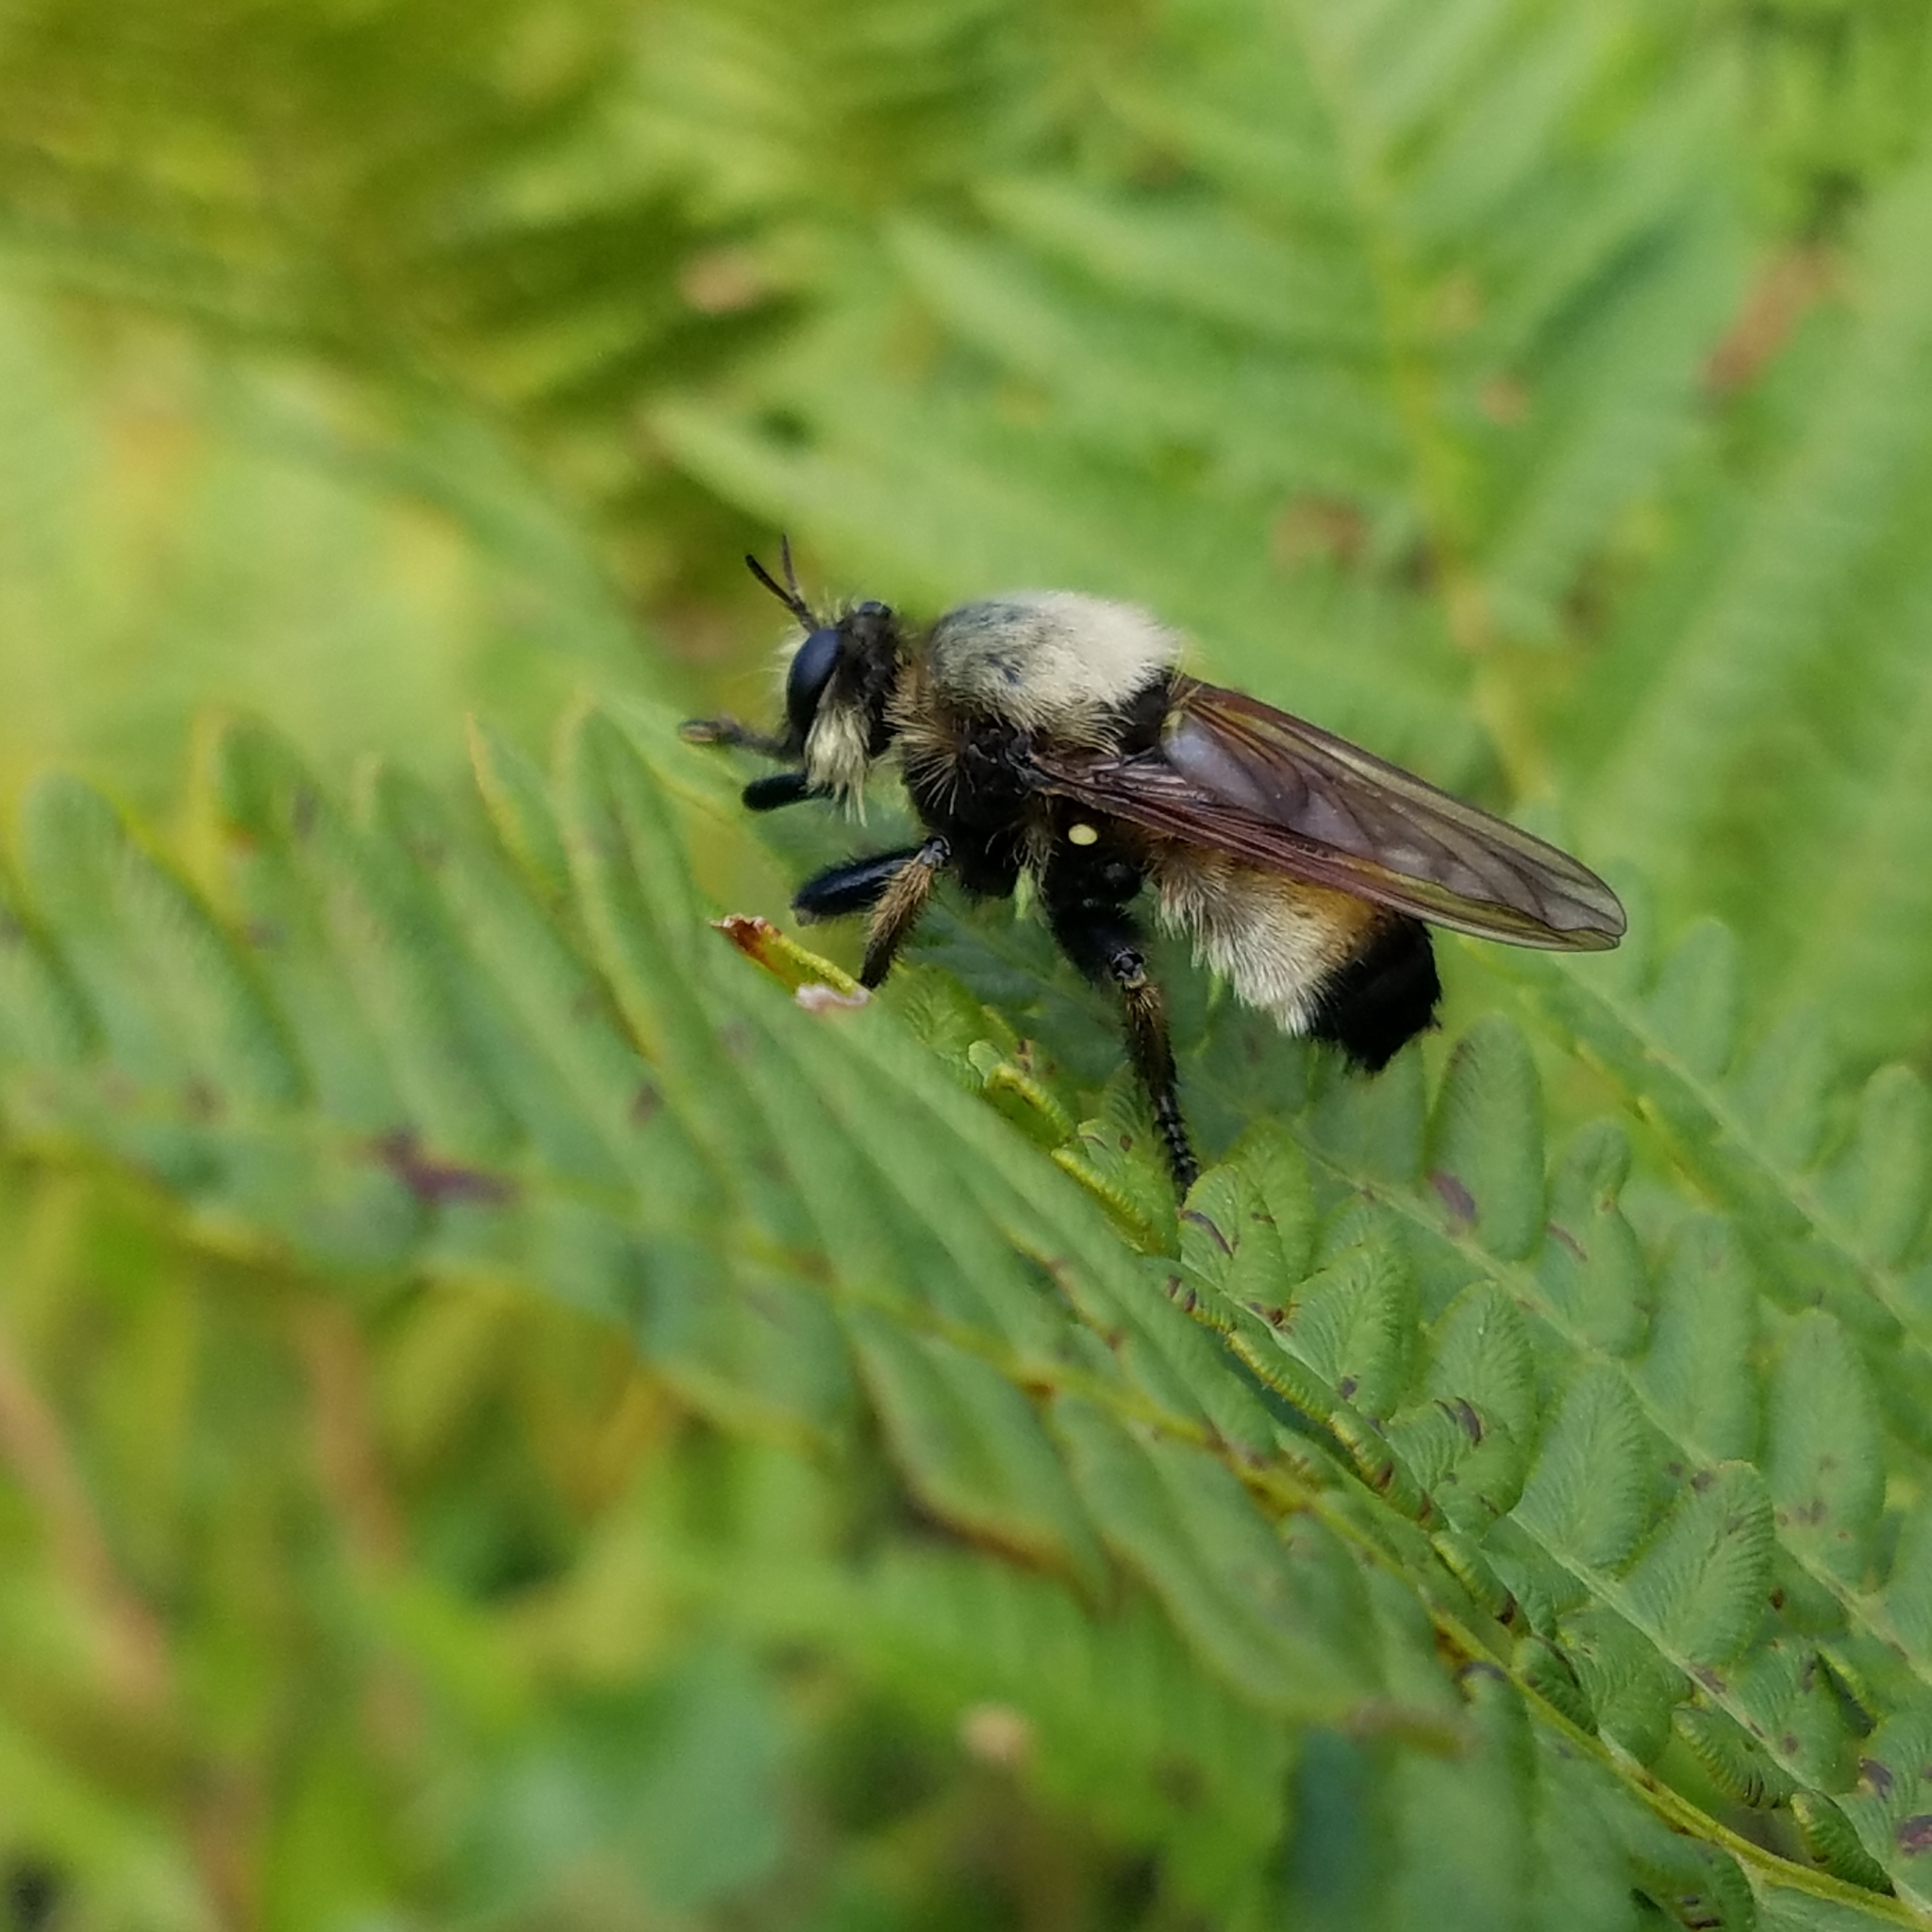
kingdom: Animalia
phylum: Arthropoda
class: Insecta
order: Diptera
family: Asilidae
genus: Laphria
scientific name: Laphria champlainii
